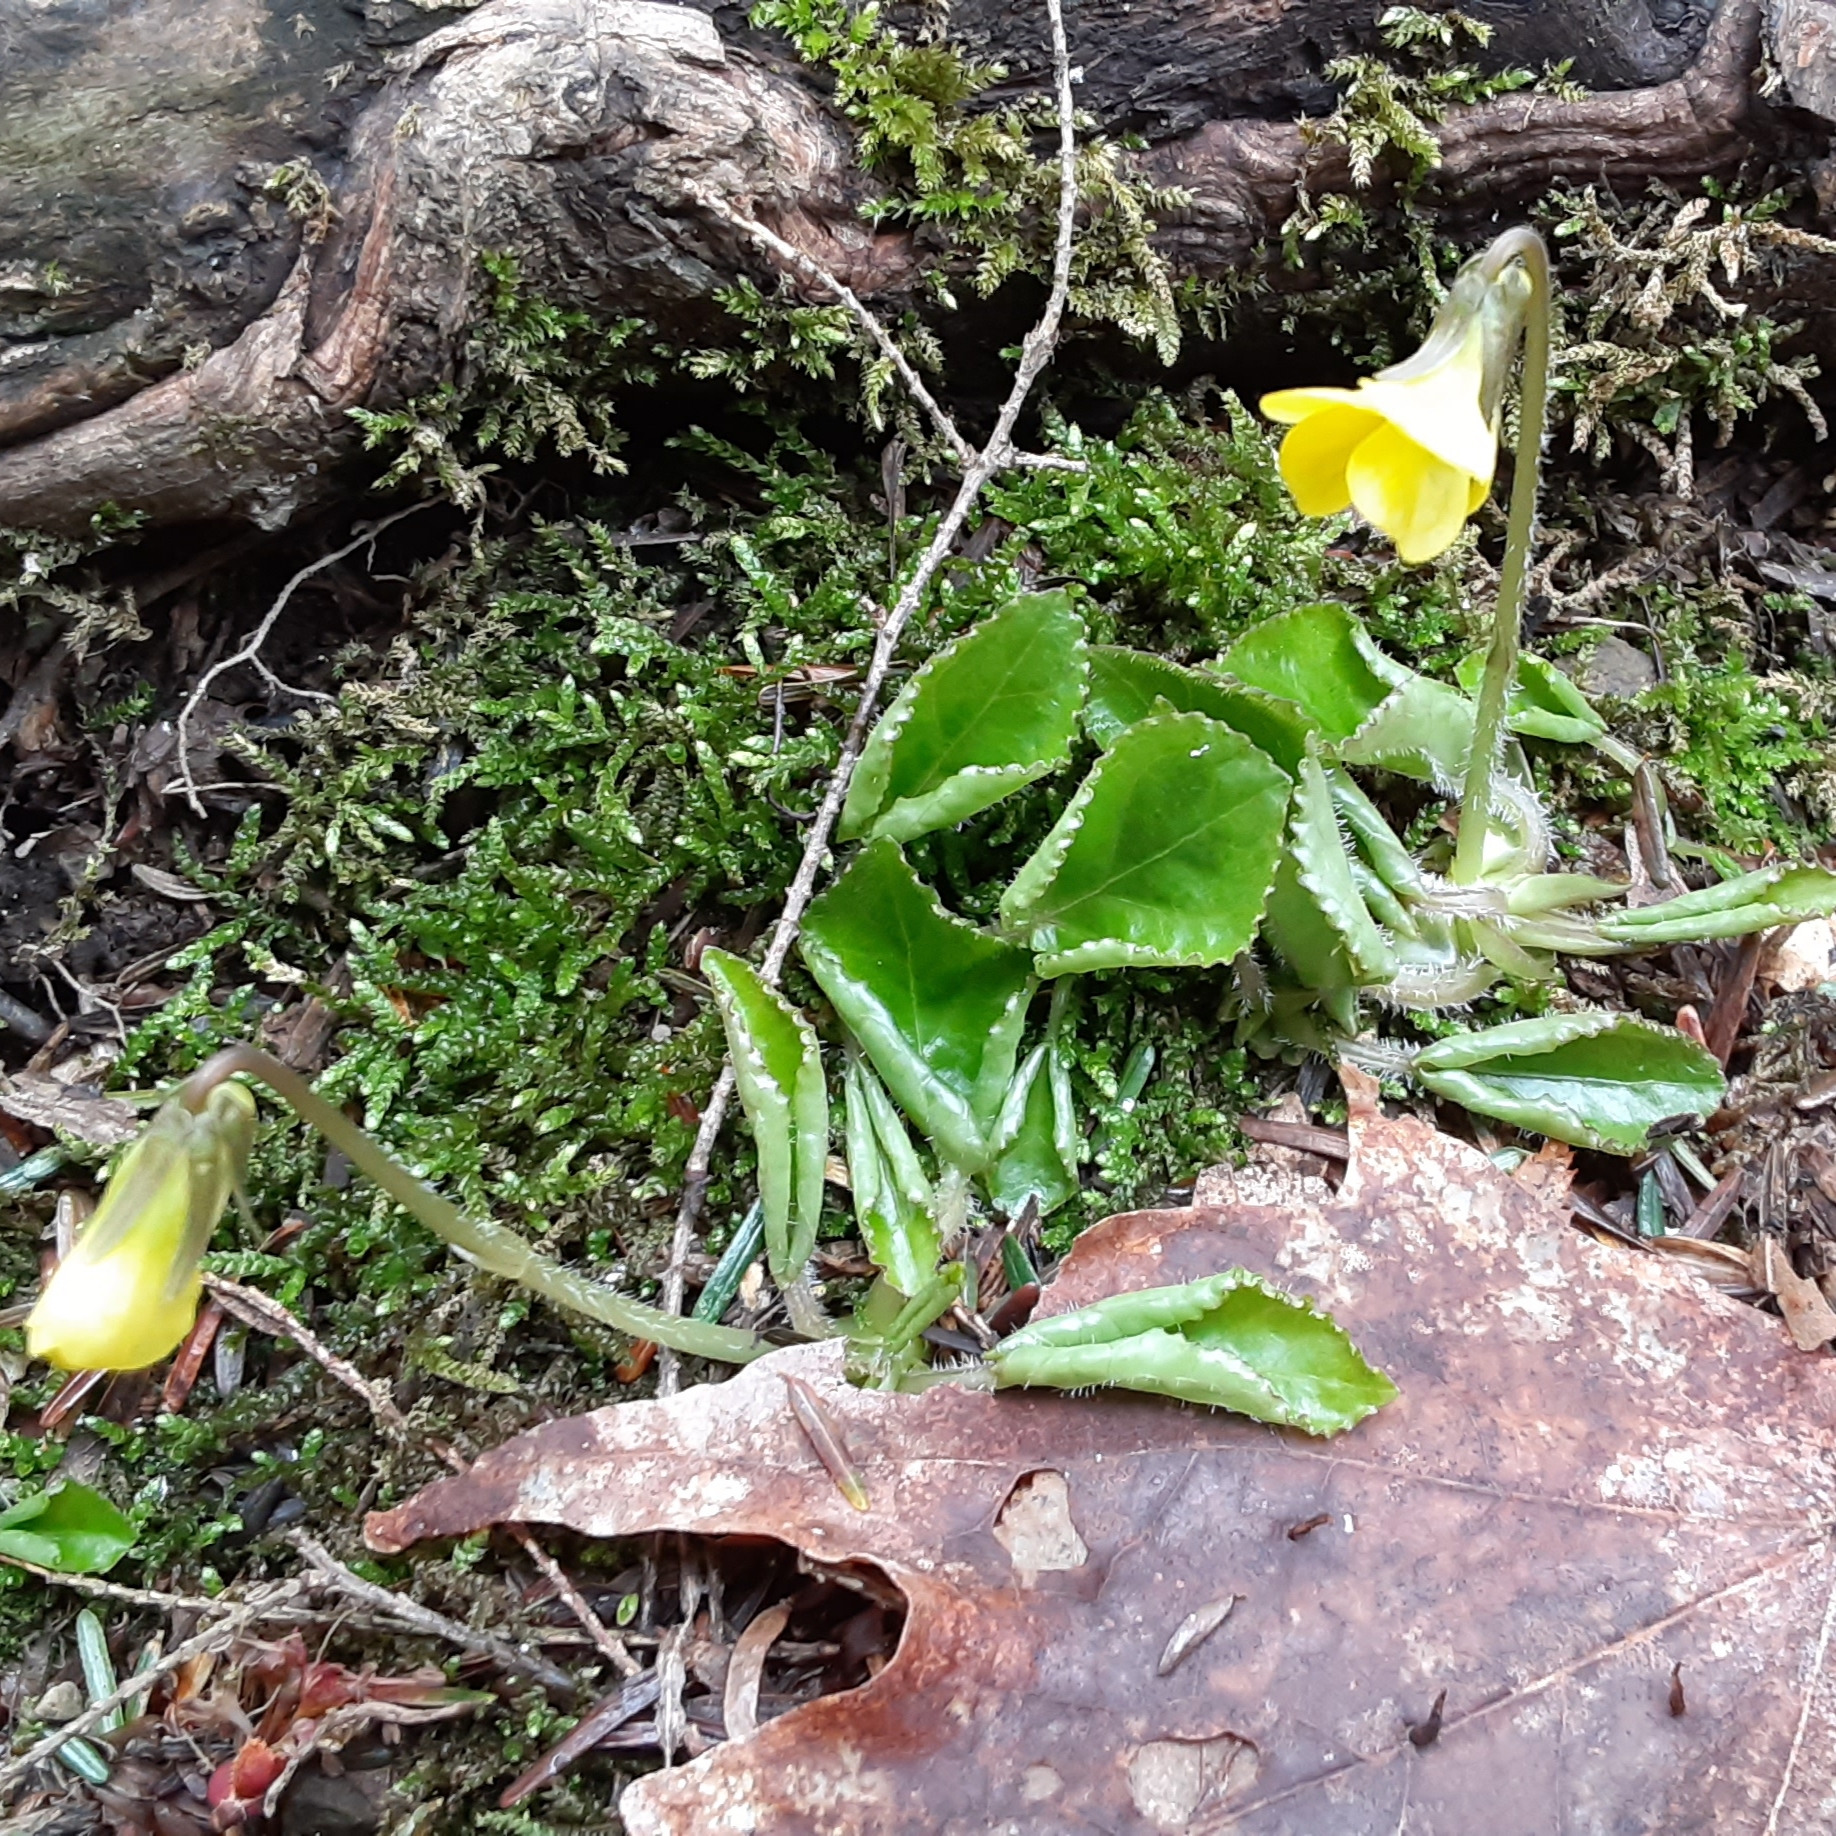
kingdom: Plantae
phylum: Tracheophyta
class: Magnoliopsida
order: Malpighiales
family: Violaceae
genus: Viola
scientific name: Viola rotundifolia
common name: Early yellow violet
